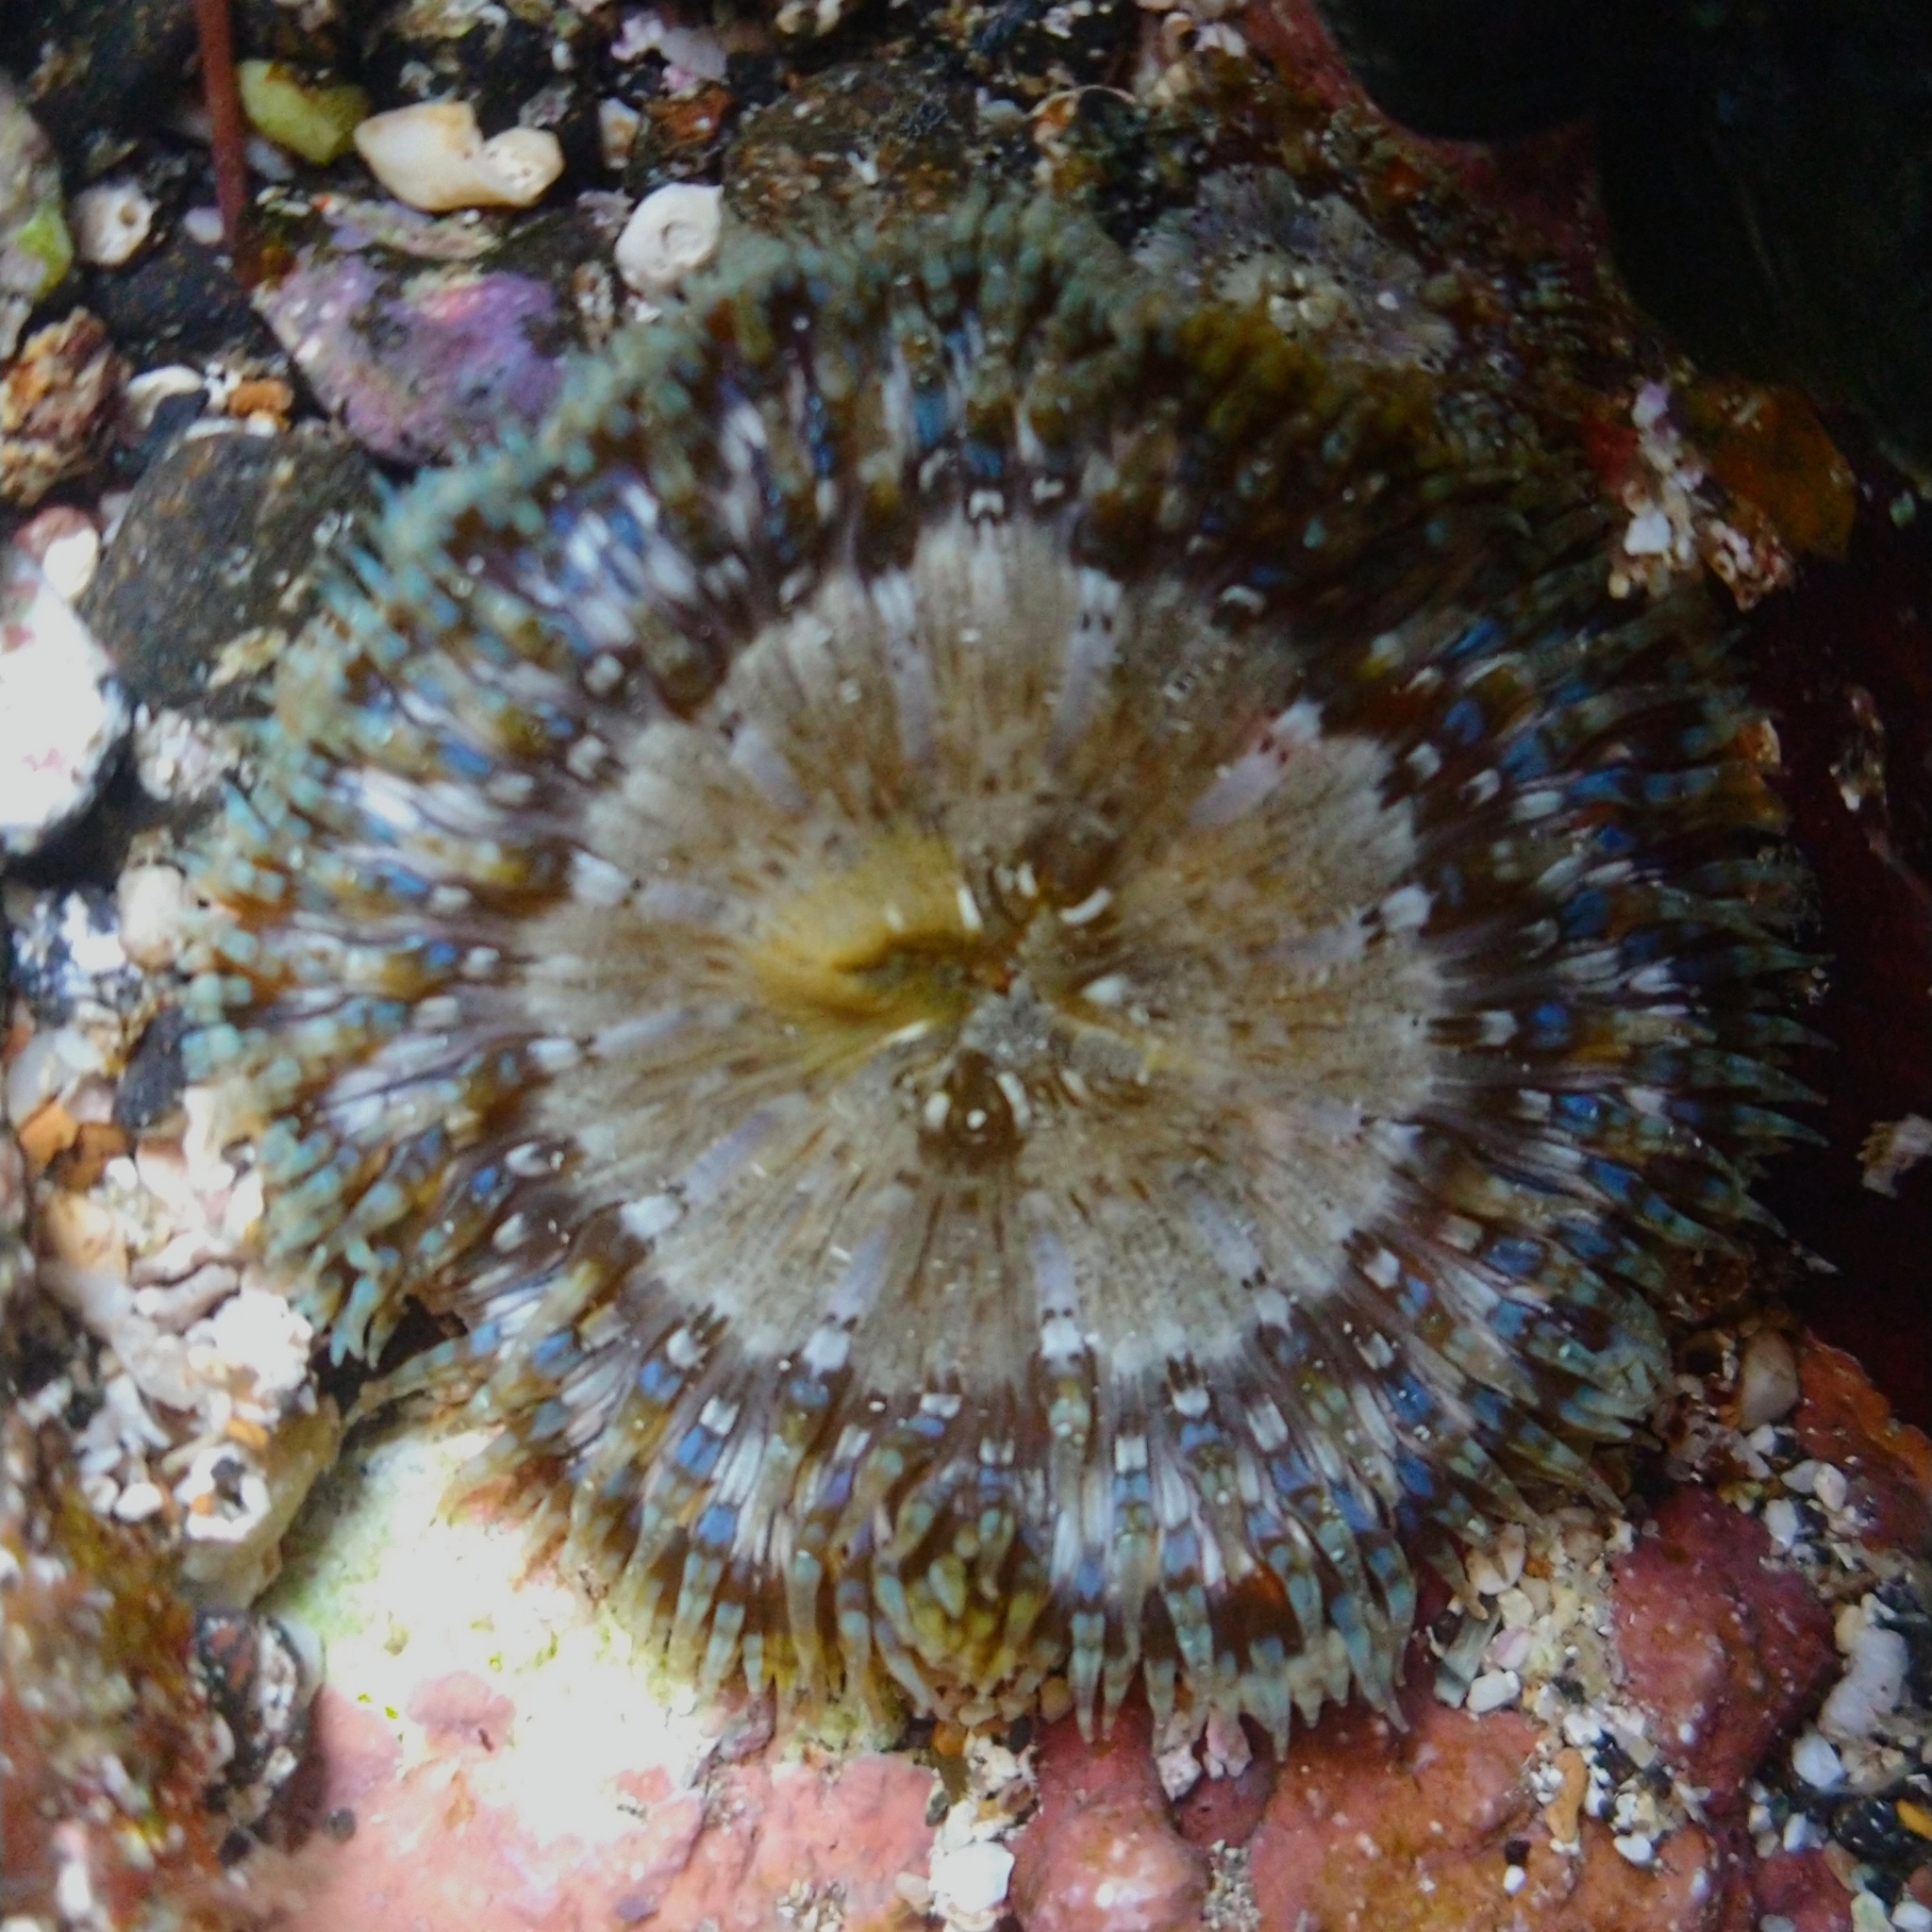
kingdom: Animalia
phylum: Cnidaria
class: Anthozoa
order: Actiniaria
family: Sagartiidae
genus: Cereus
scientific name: Cereus pedunculatus
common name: Daisy anemone
